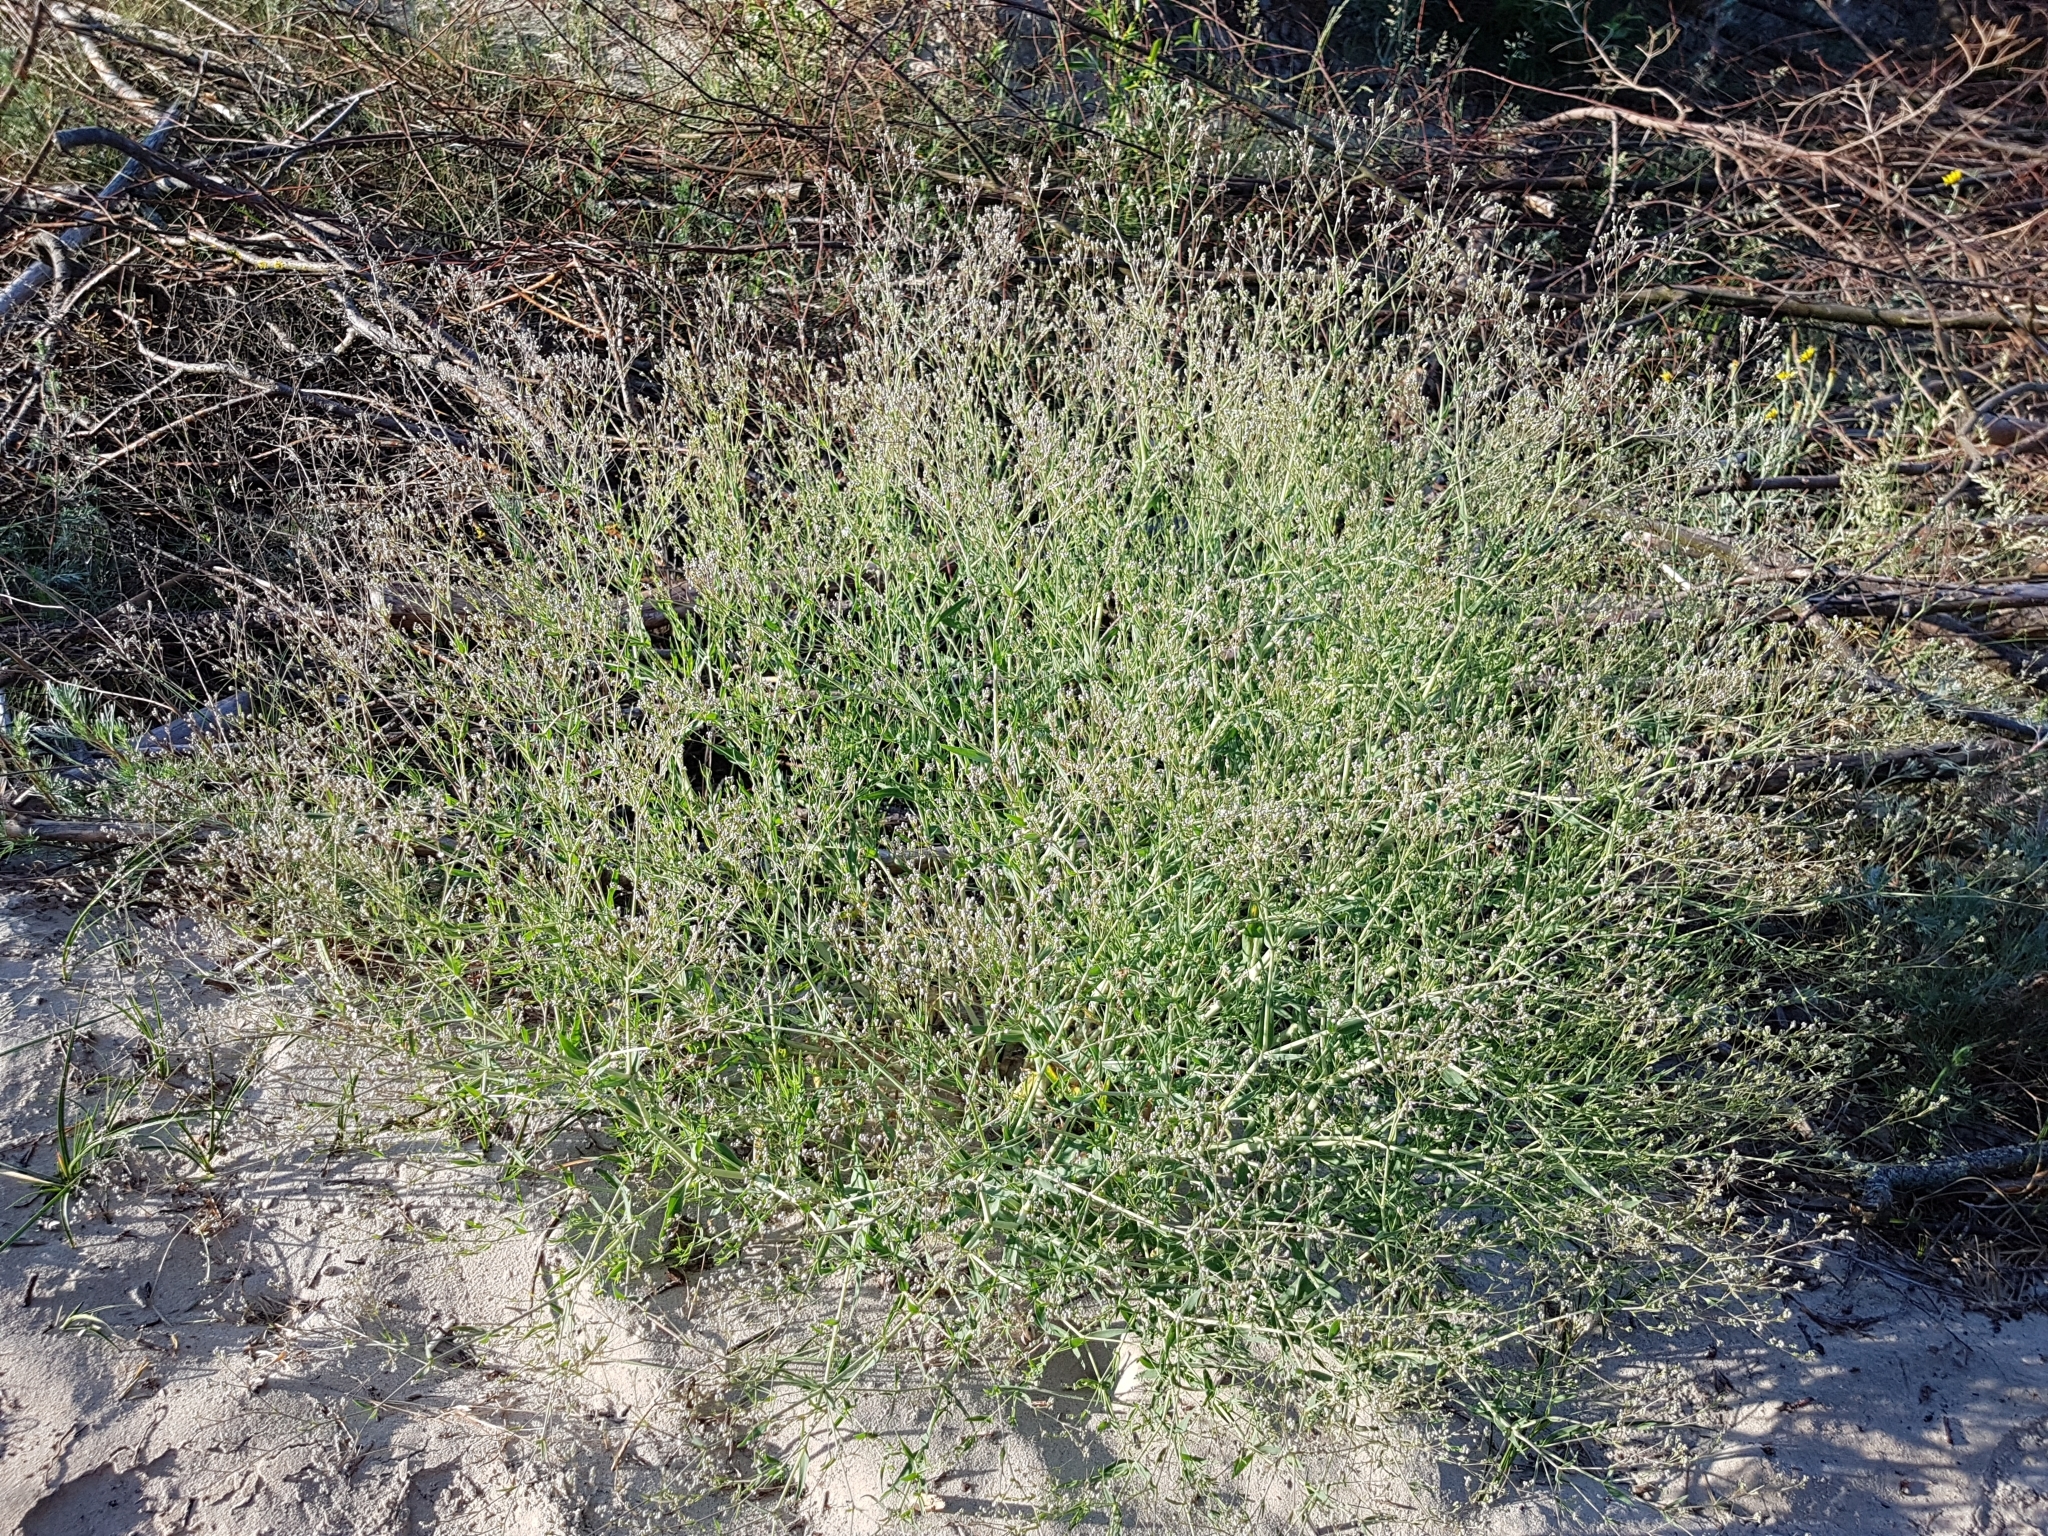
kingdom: Plantae
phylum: Tracheophyta
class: Magnoliopsida
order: Caryophyllales
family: Caryophyllaceae
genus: Gypsophila
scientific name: Gypsophila paniculata
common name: Baby's-breath
